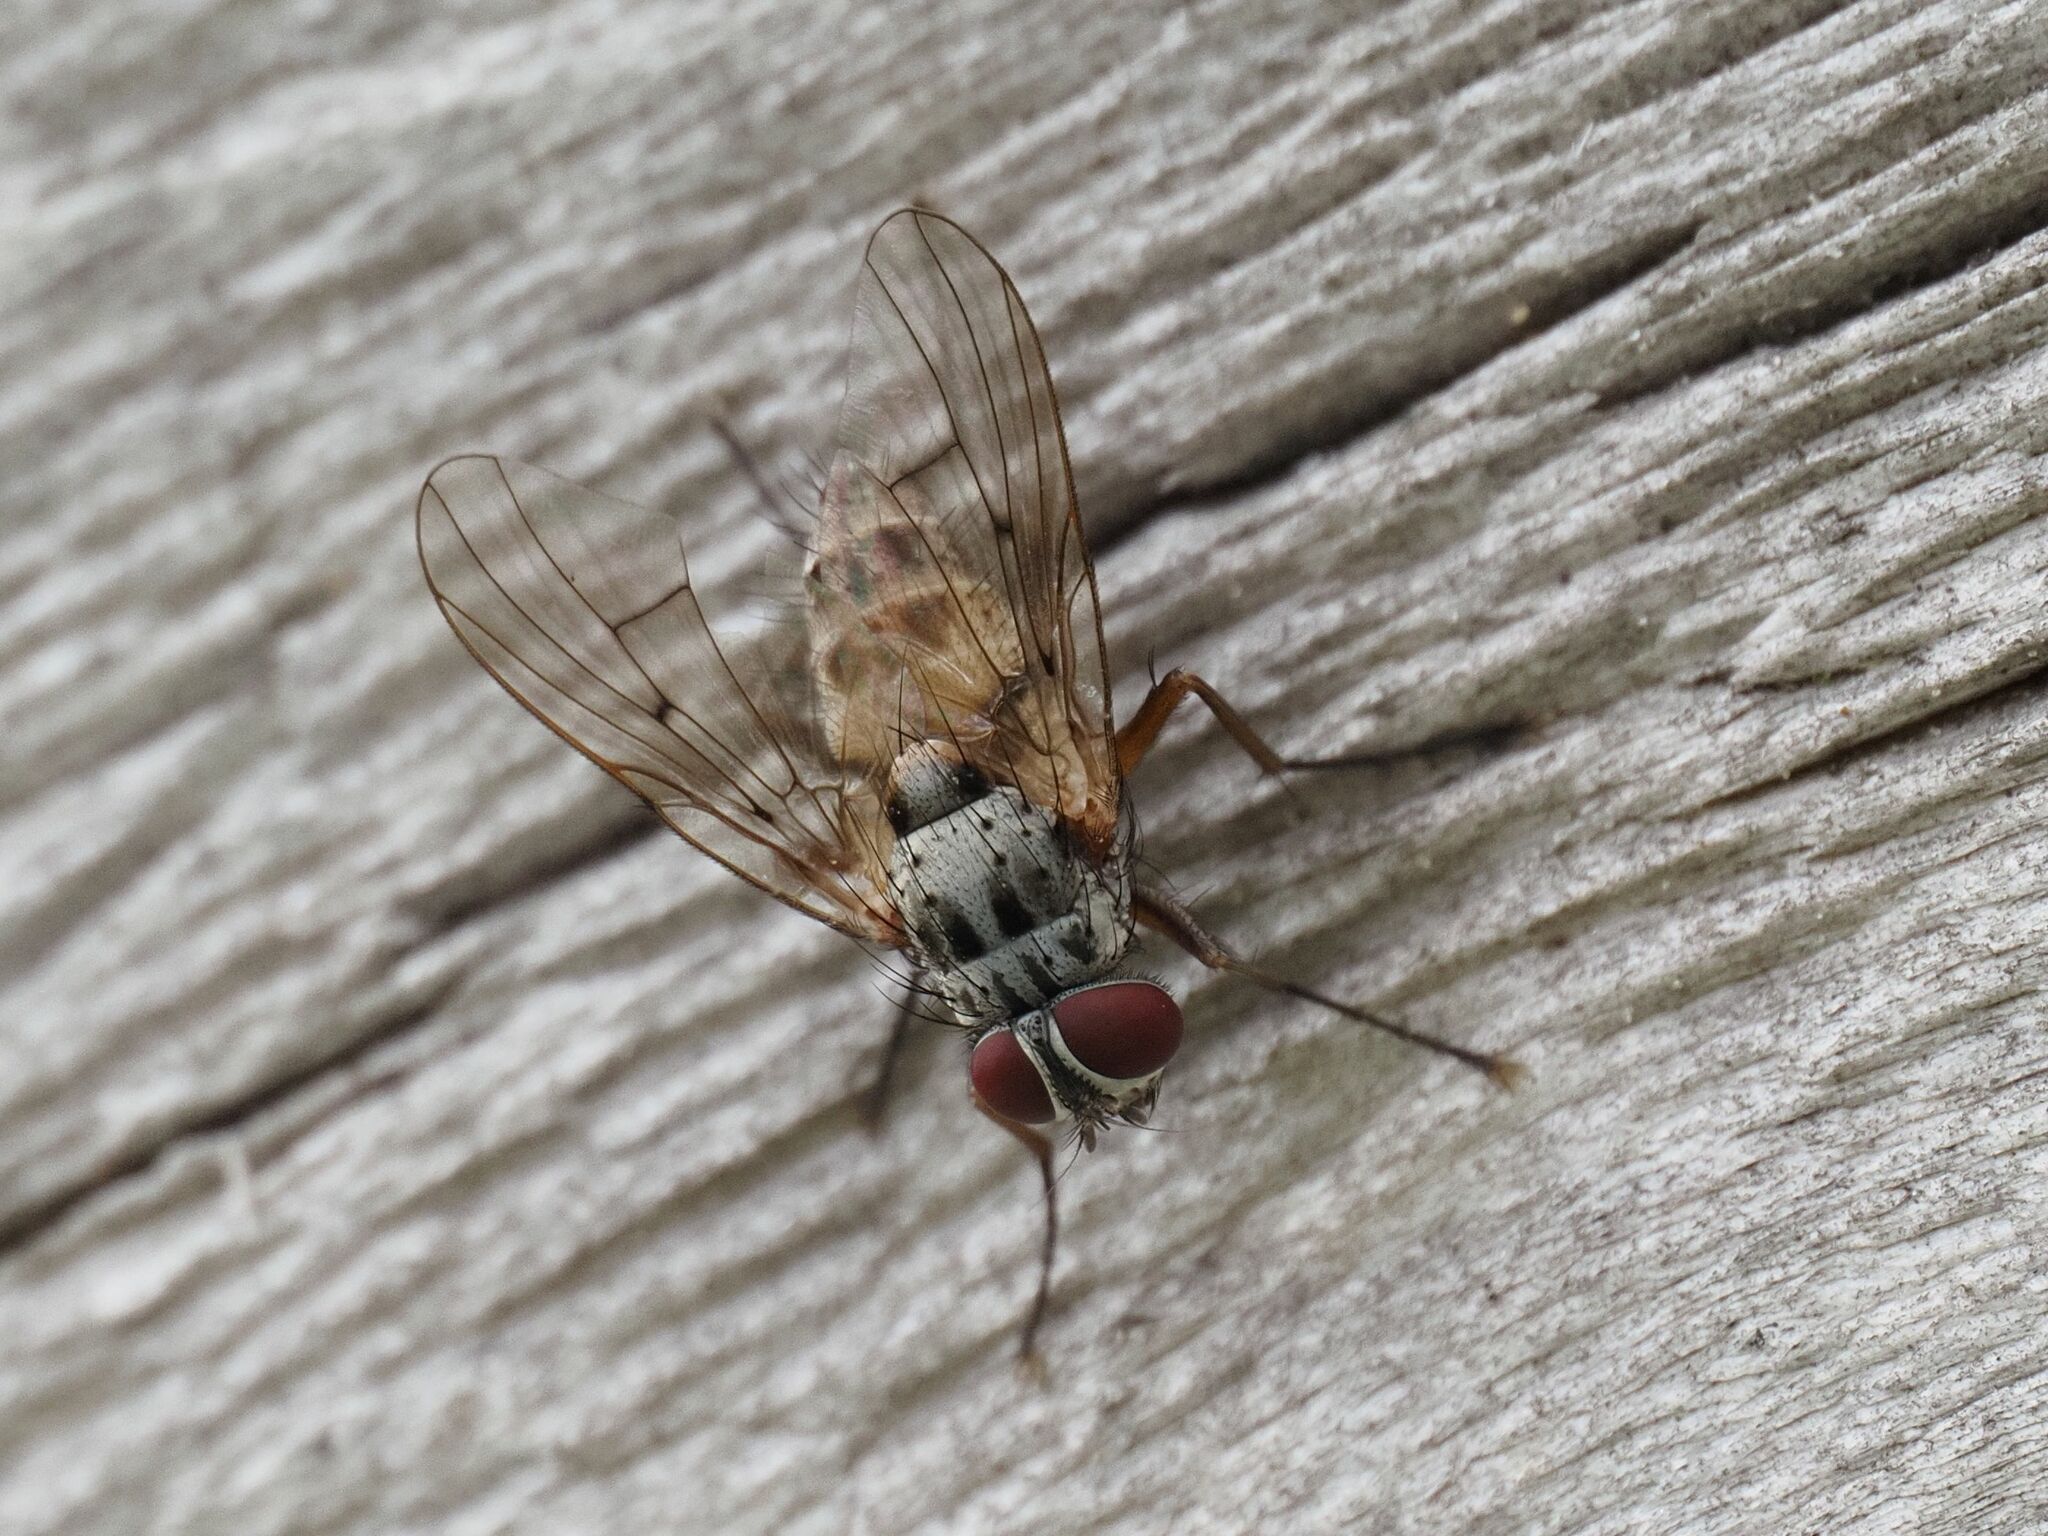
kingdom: Animalia
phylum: Arthropoda
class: Insecta
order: Diptera
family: Muscidae
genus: Helina
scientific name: Helina sexmaculata
